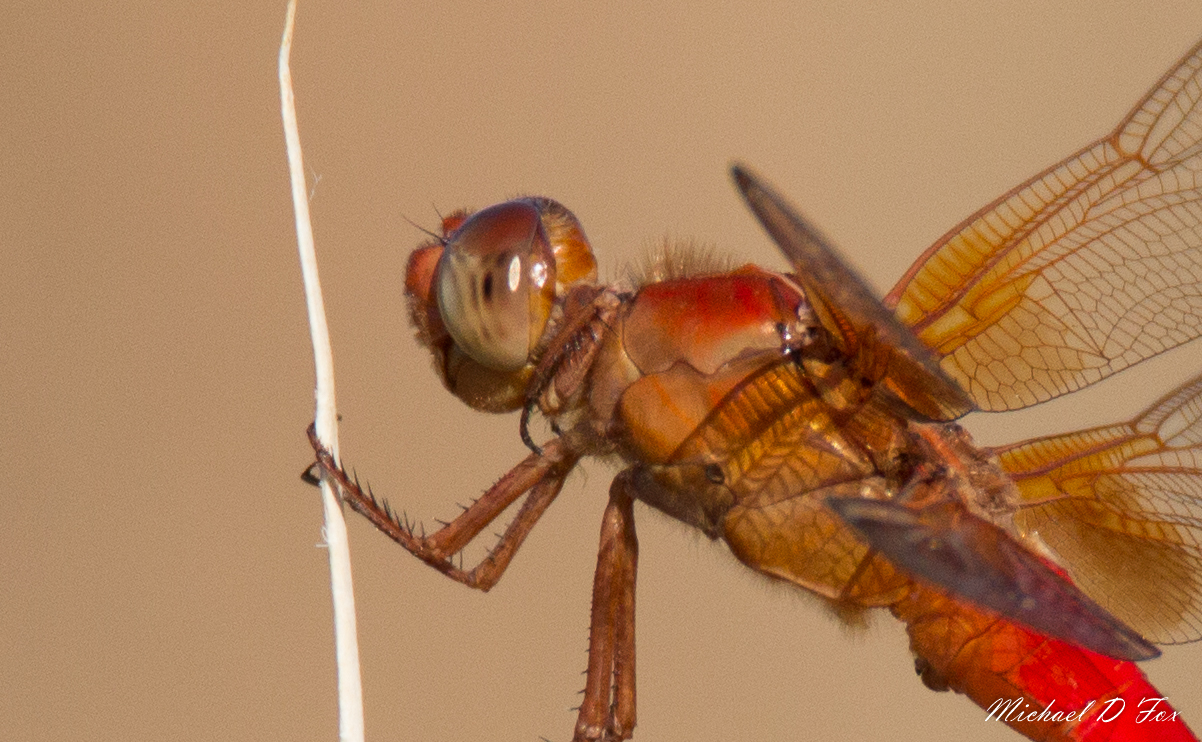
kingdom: Animalia
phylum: Arthropoda
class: Insecta
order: Odonata
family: Libellulidae
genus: Libellula
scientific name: Libellula croceipennis
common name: Neon skimmer
